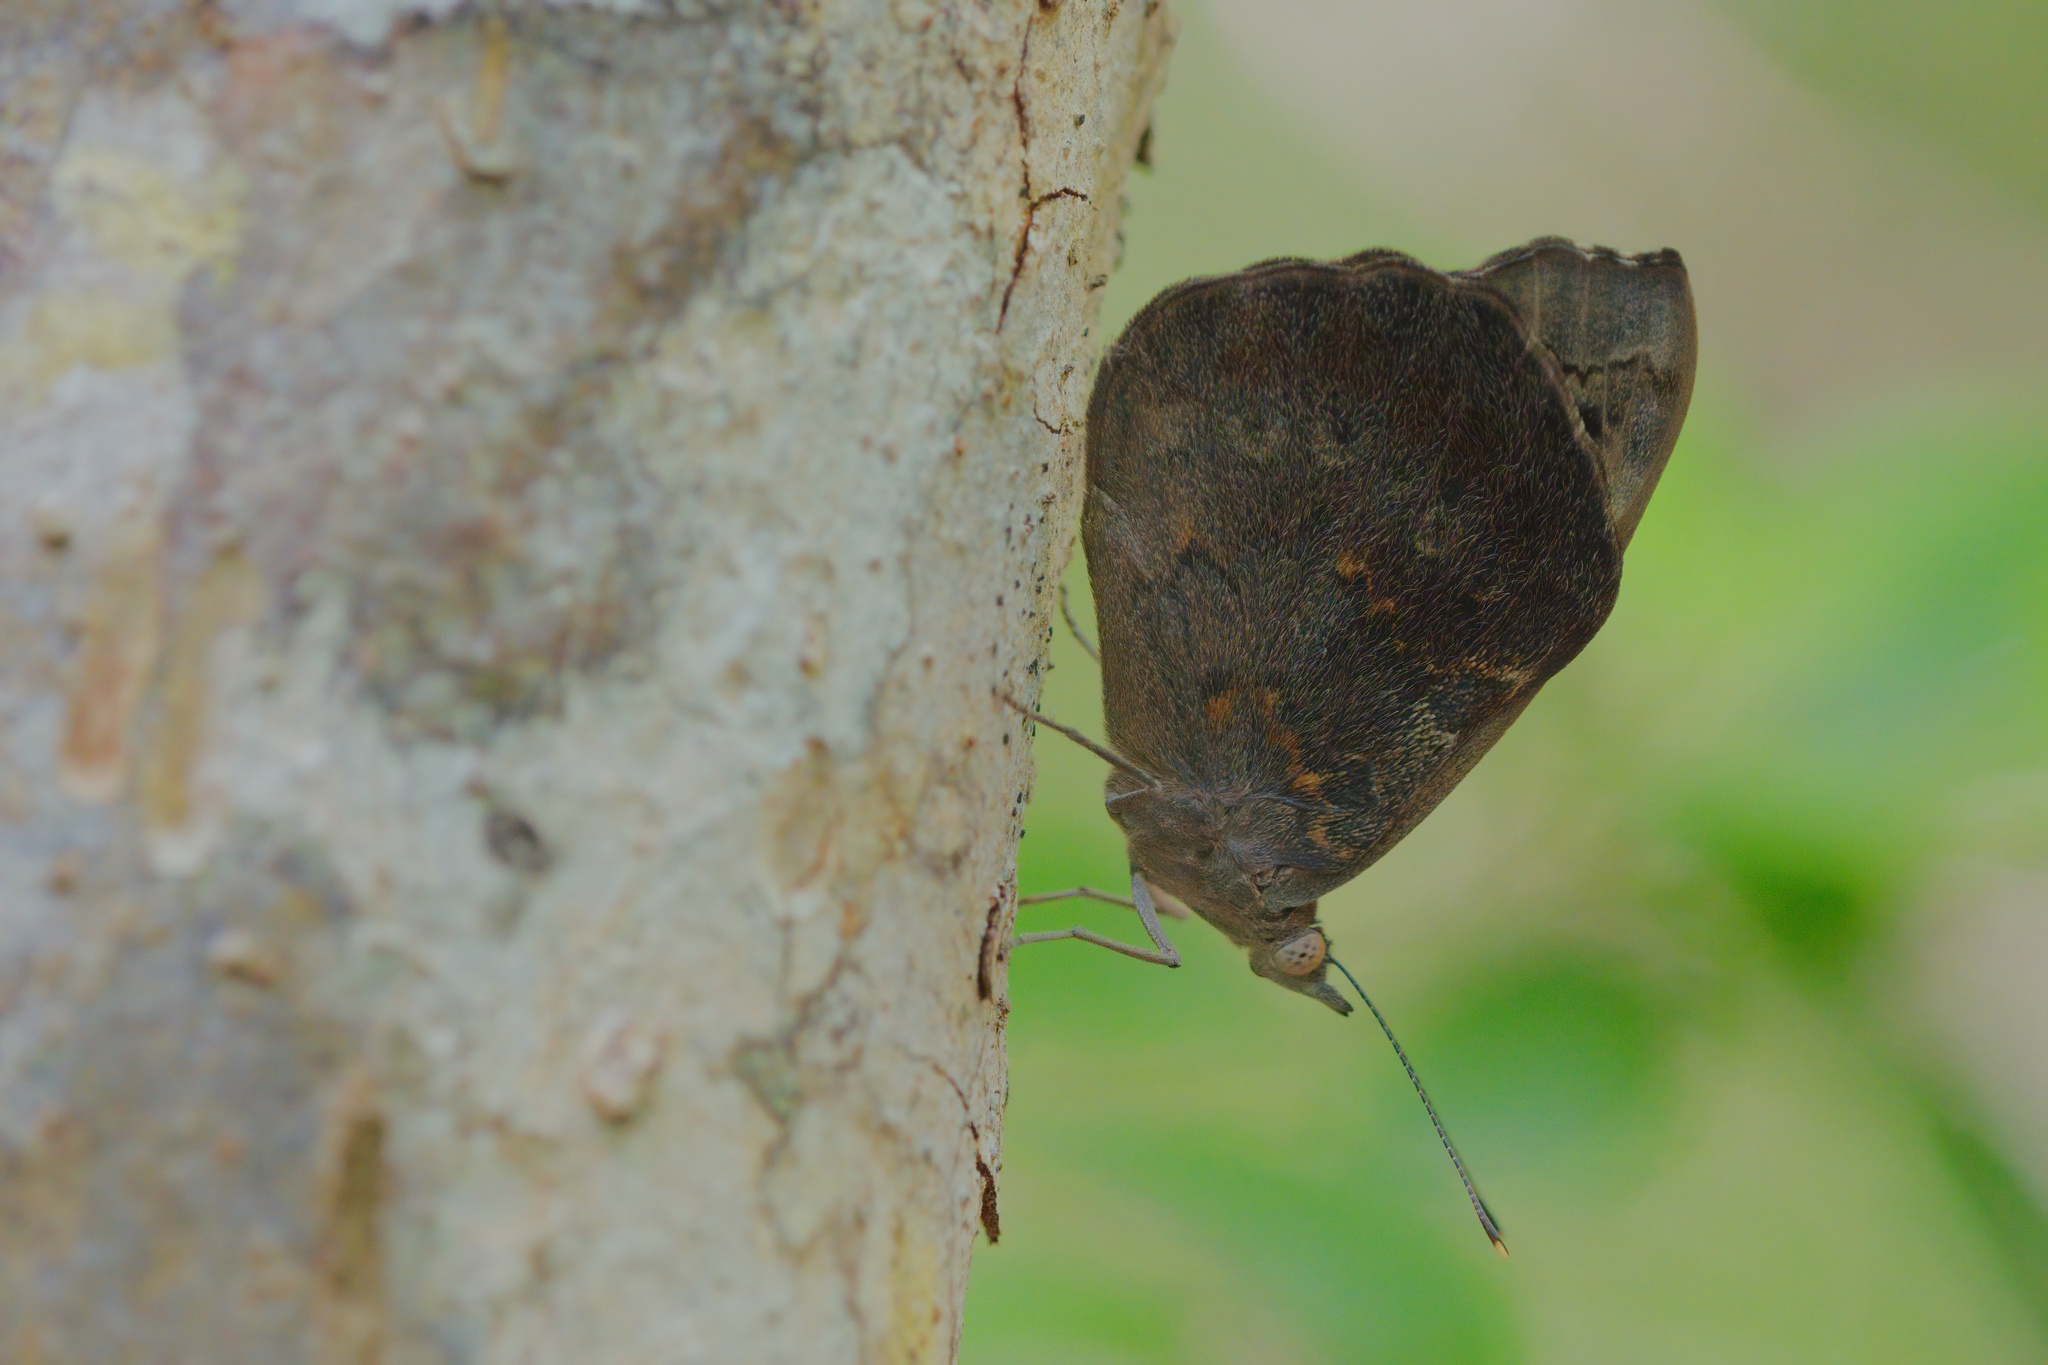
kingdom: Animalia
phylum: Arthropoda
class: Insecta
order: Lepidoptera
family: Nymphalidae
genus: Eunica
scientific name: Eunica tatila
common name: Florida purplewing
